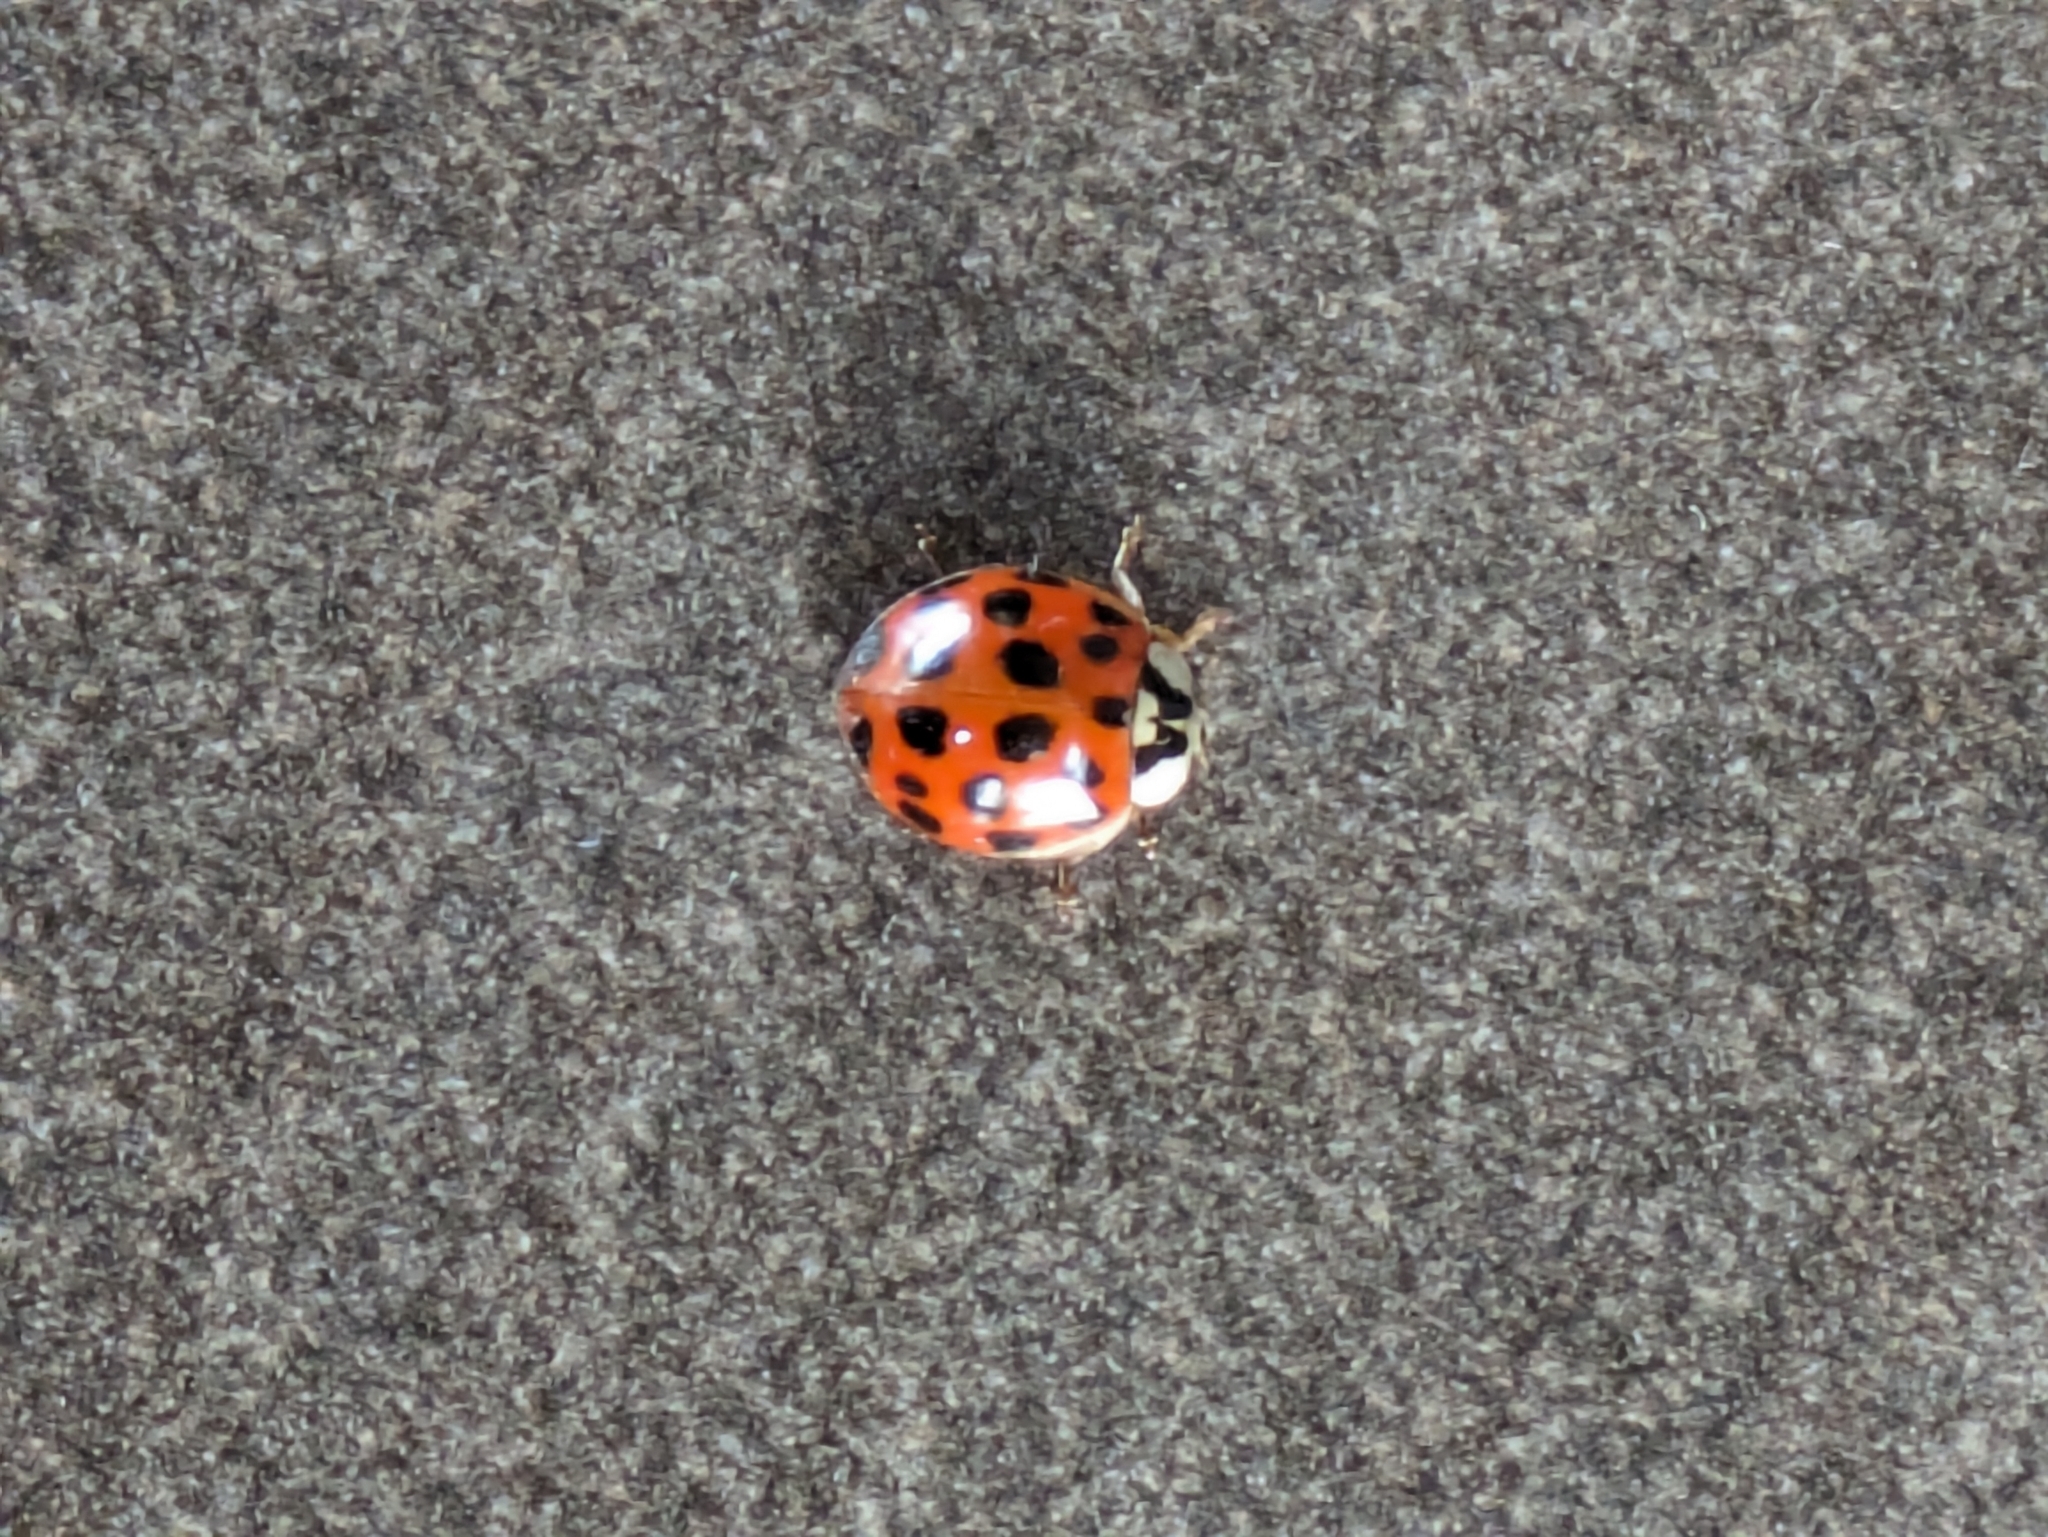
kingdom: Animalia
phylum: Arthropoda
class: Insecta
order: Coleoptera
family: Coccinellidae
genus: Harmonia
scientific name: Harmonia axyridis
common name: Harlequin ladybird
